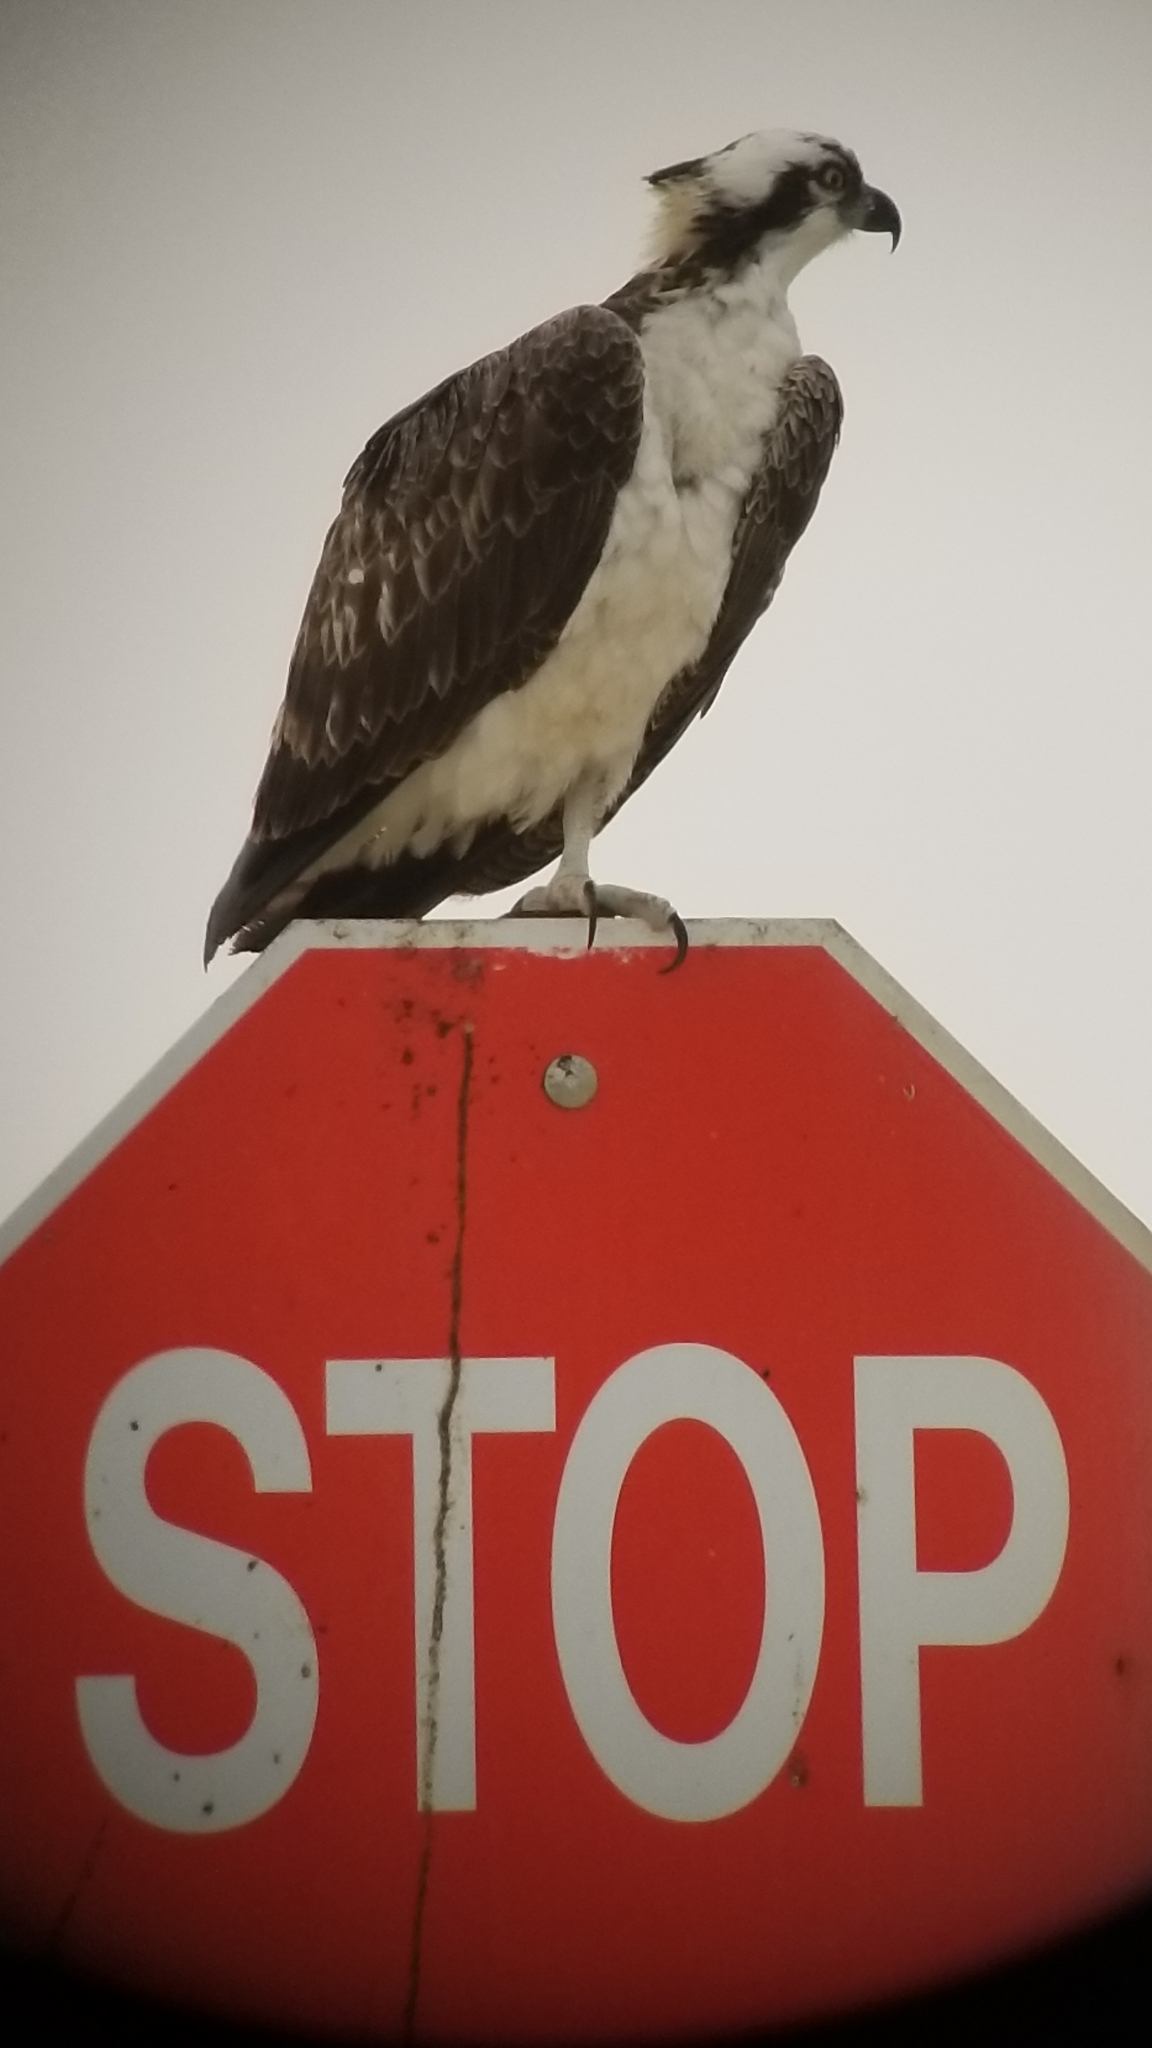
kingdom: Animalia
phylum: Chordata
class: Aves
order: Accipitriformes
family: Pandionidae
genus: Pandion
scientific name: Pandion haliaetus
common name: Osprey
